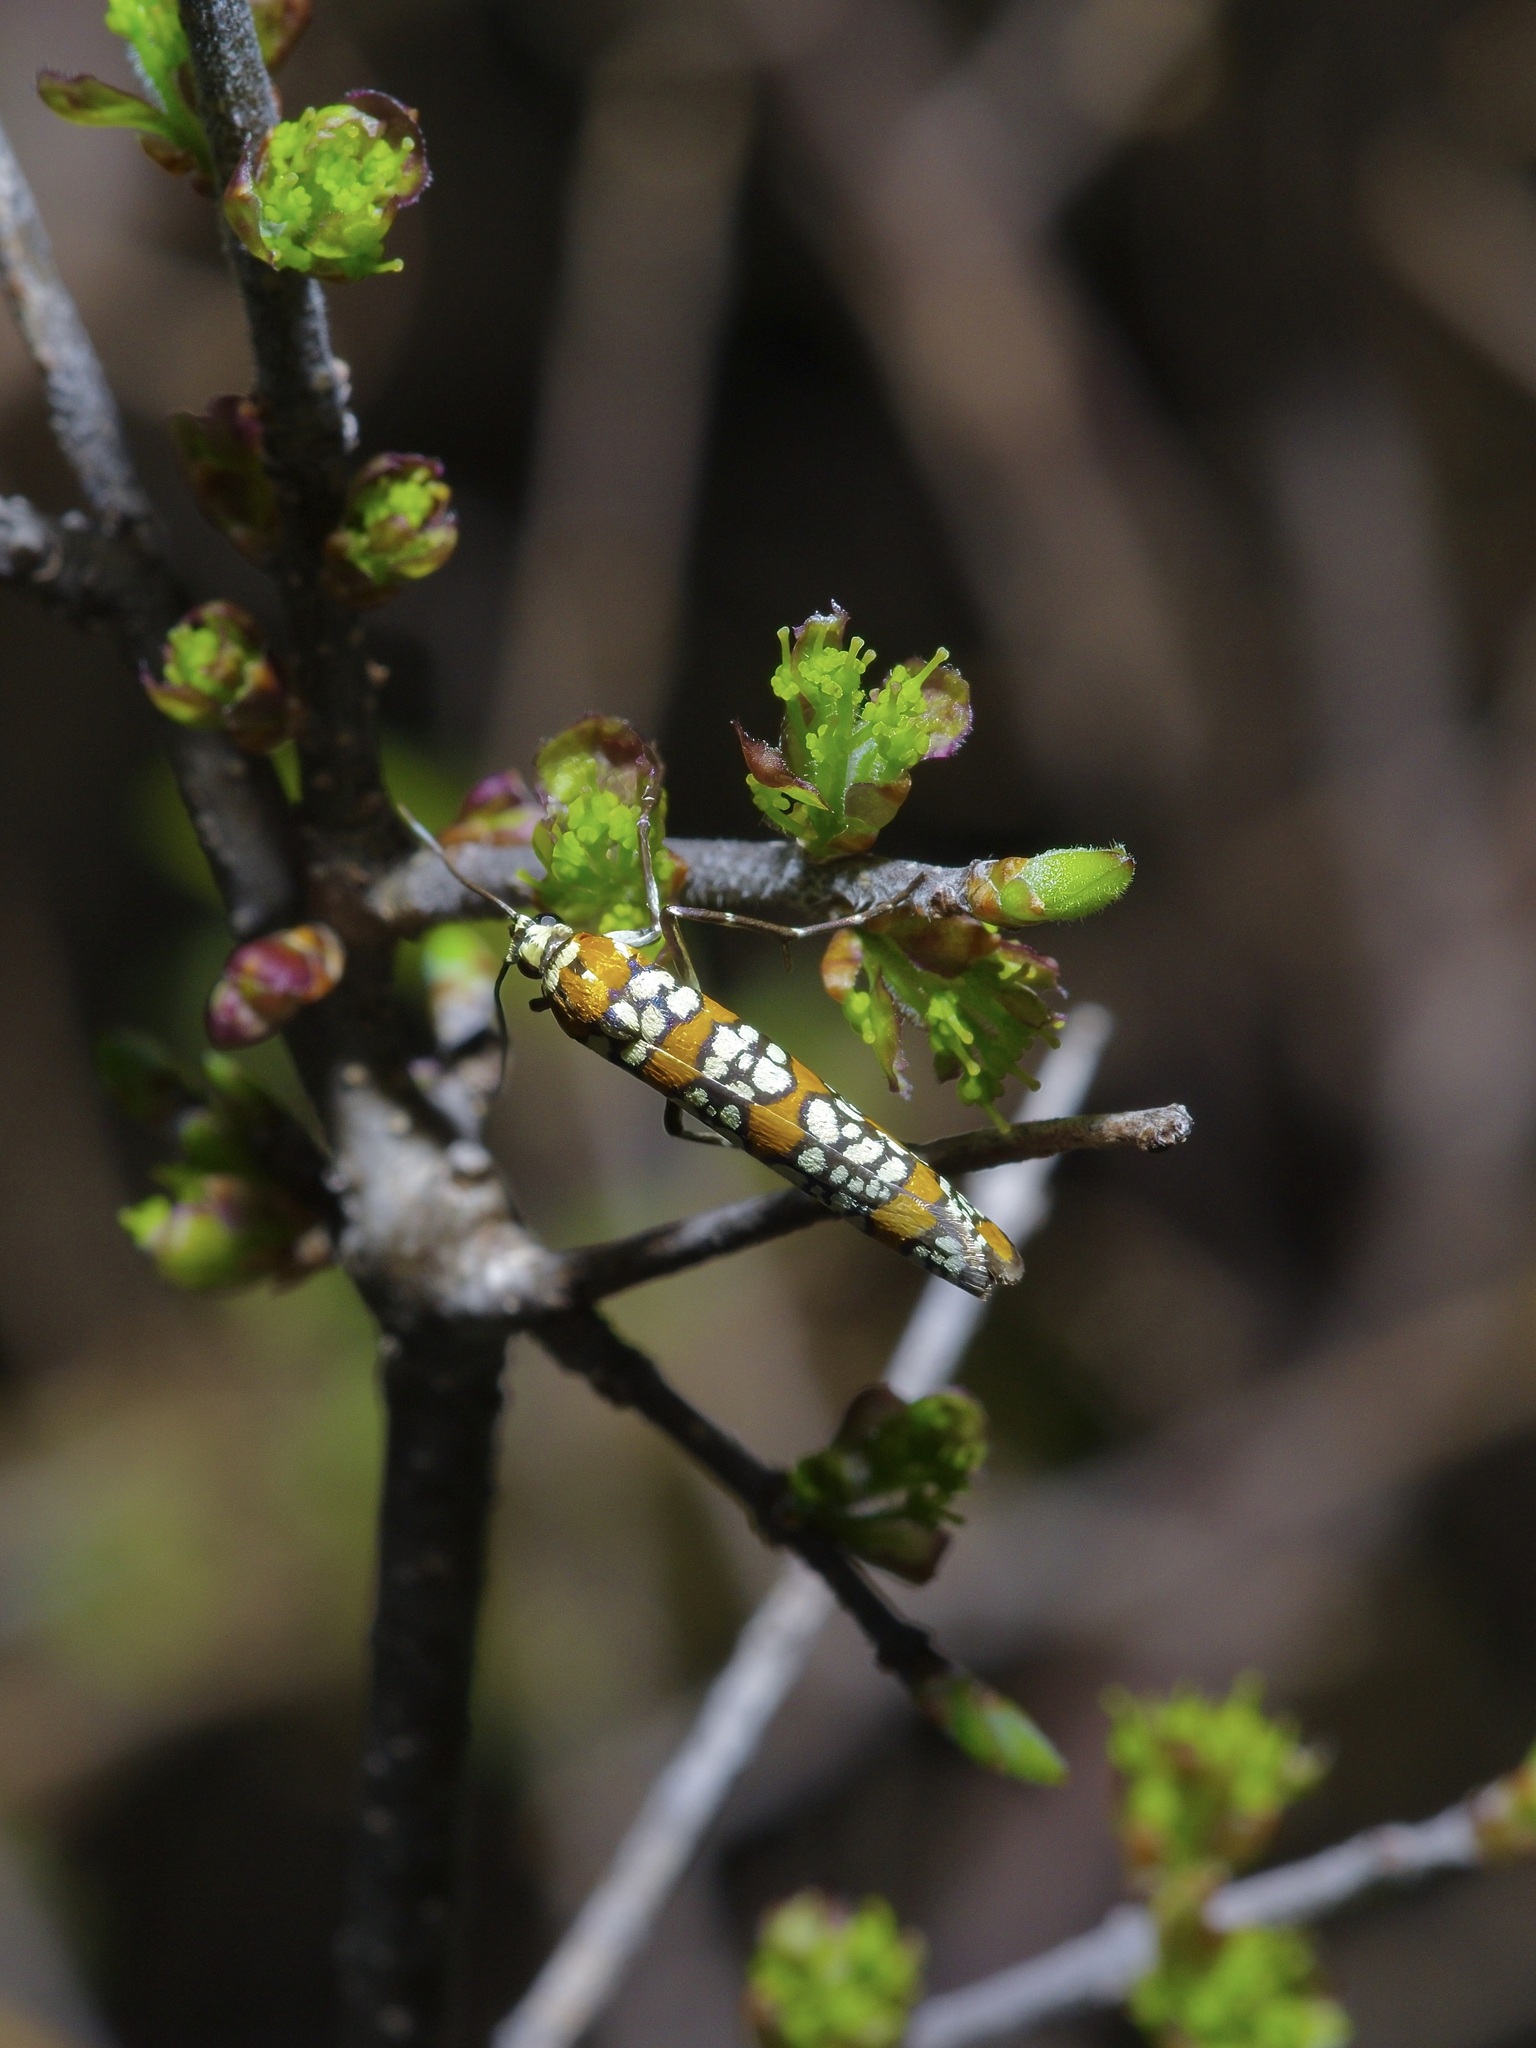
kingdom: Animalia
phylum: Arthropoda
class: Insecta
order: Lepidoptera
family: Attevidae
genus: Atteva
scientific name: Atteva punctella
